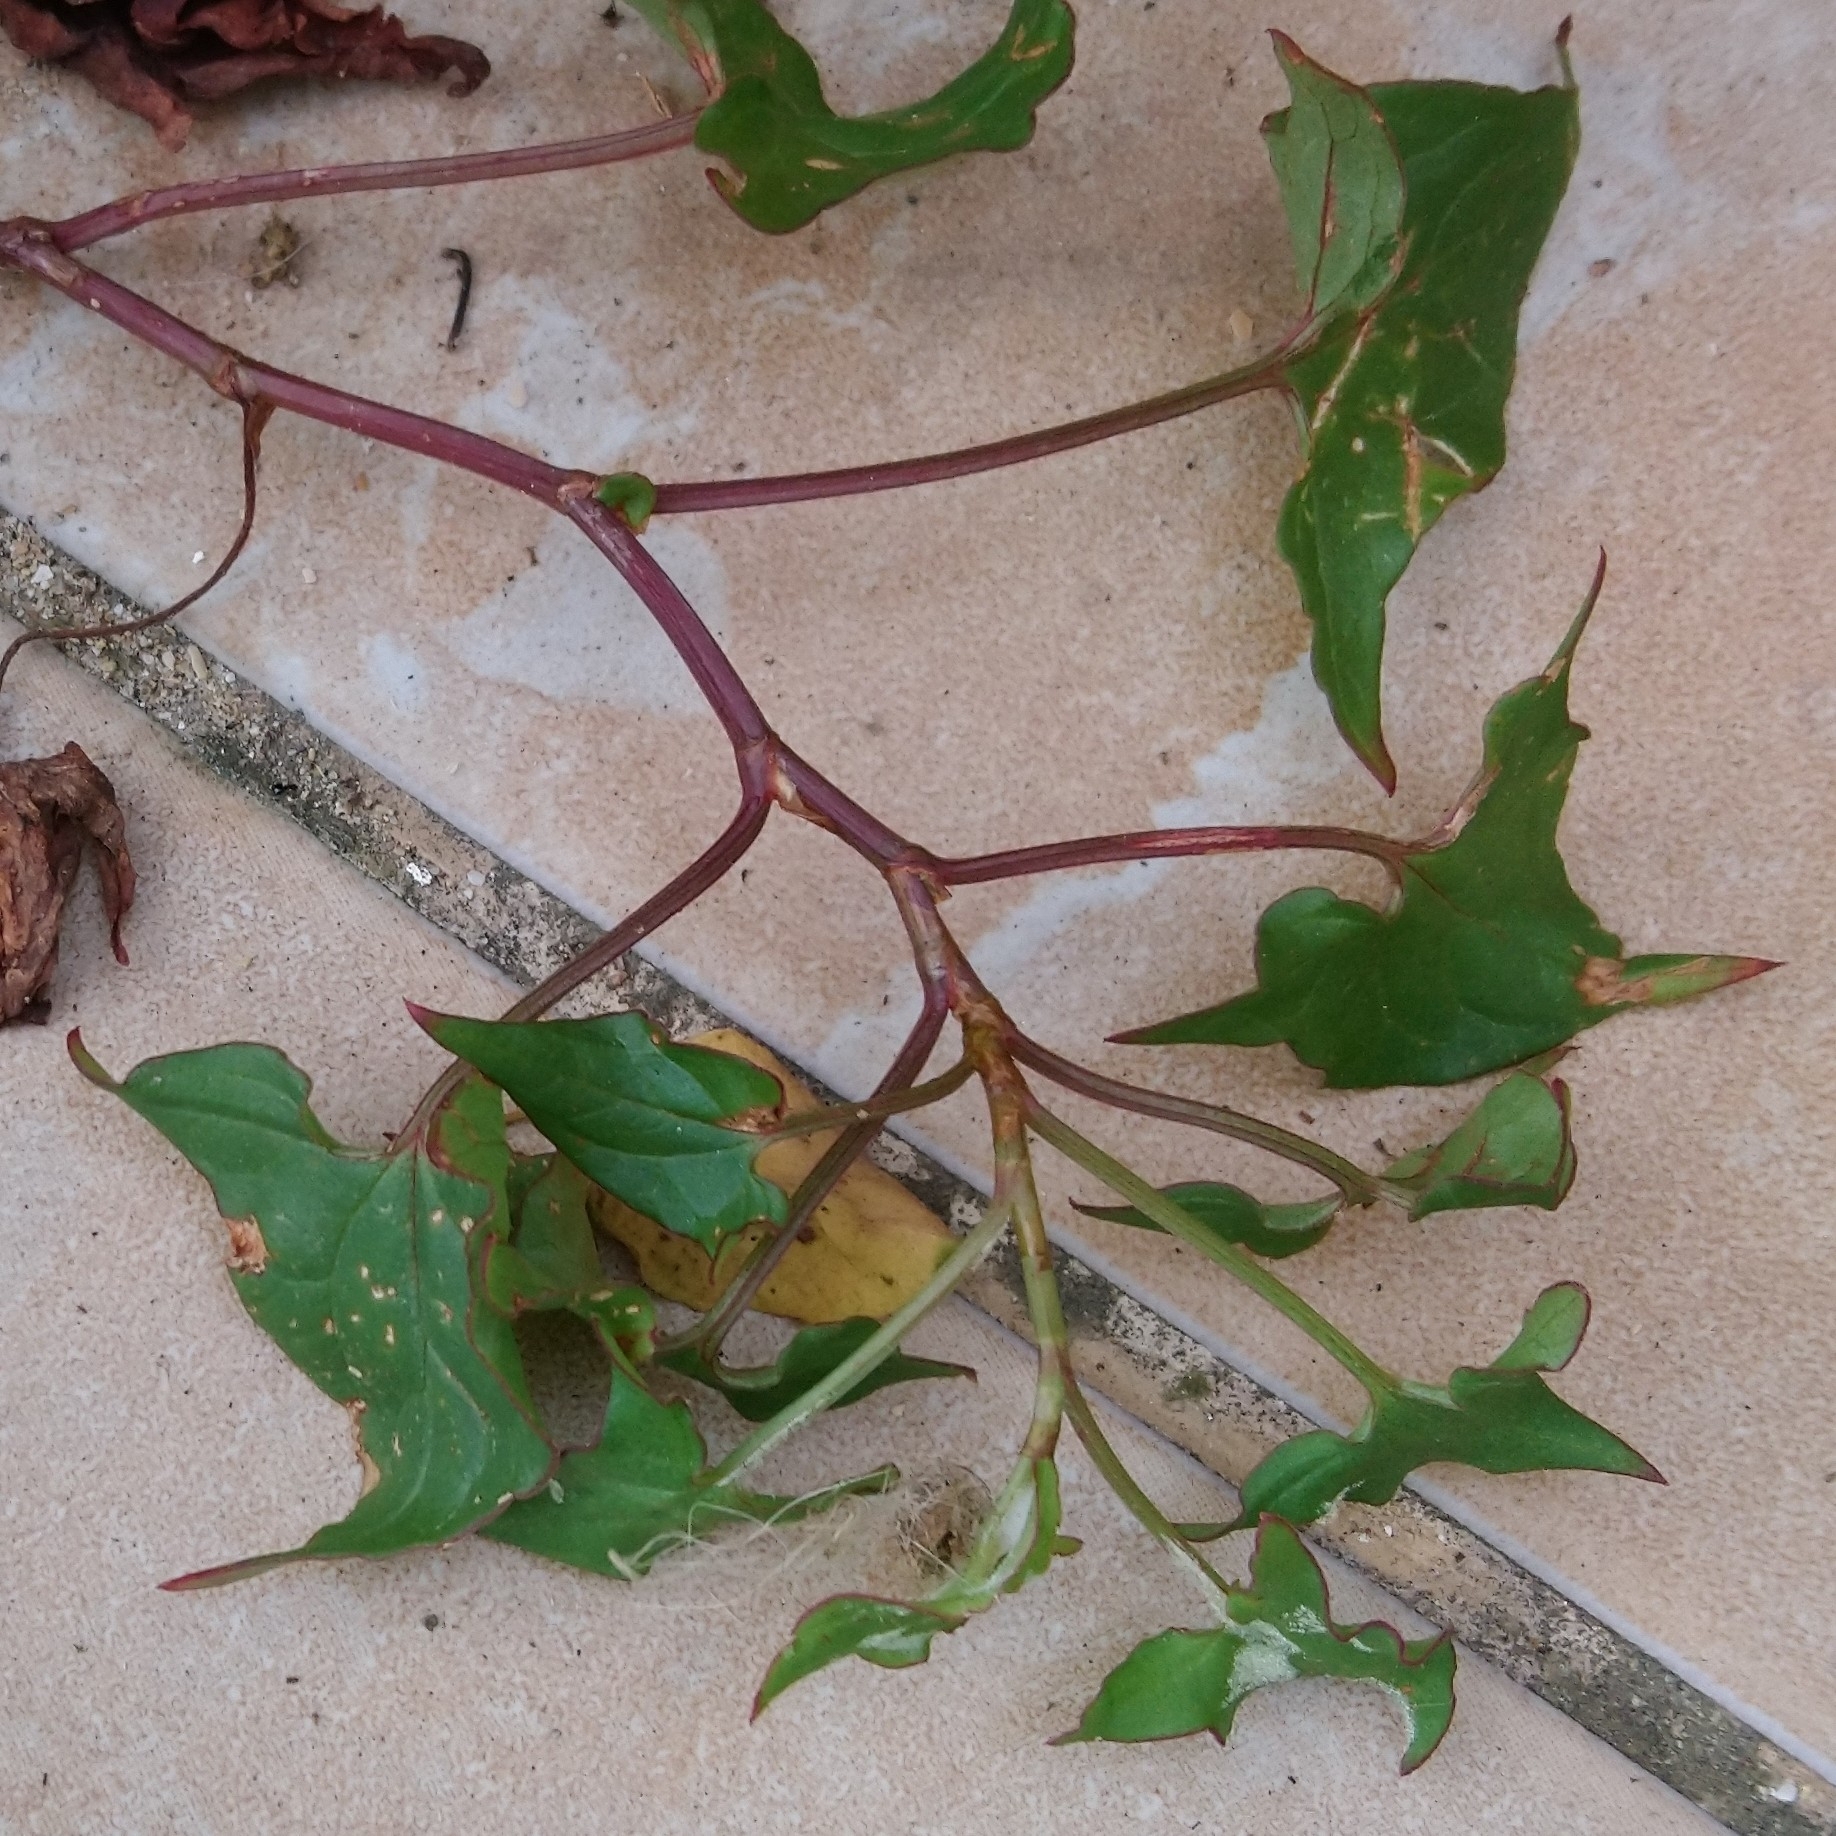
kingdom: Plantae
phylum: Tracheophyta
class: Magnoliopsida
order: Caryophyllales
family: Polygonaceae
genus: Rumex
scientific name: Rumex sagittatus
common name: Climbing dock
